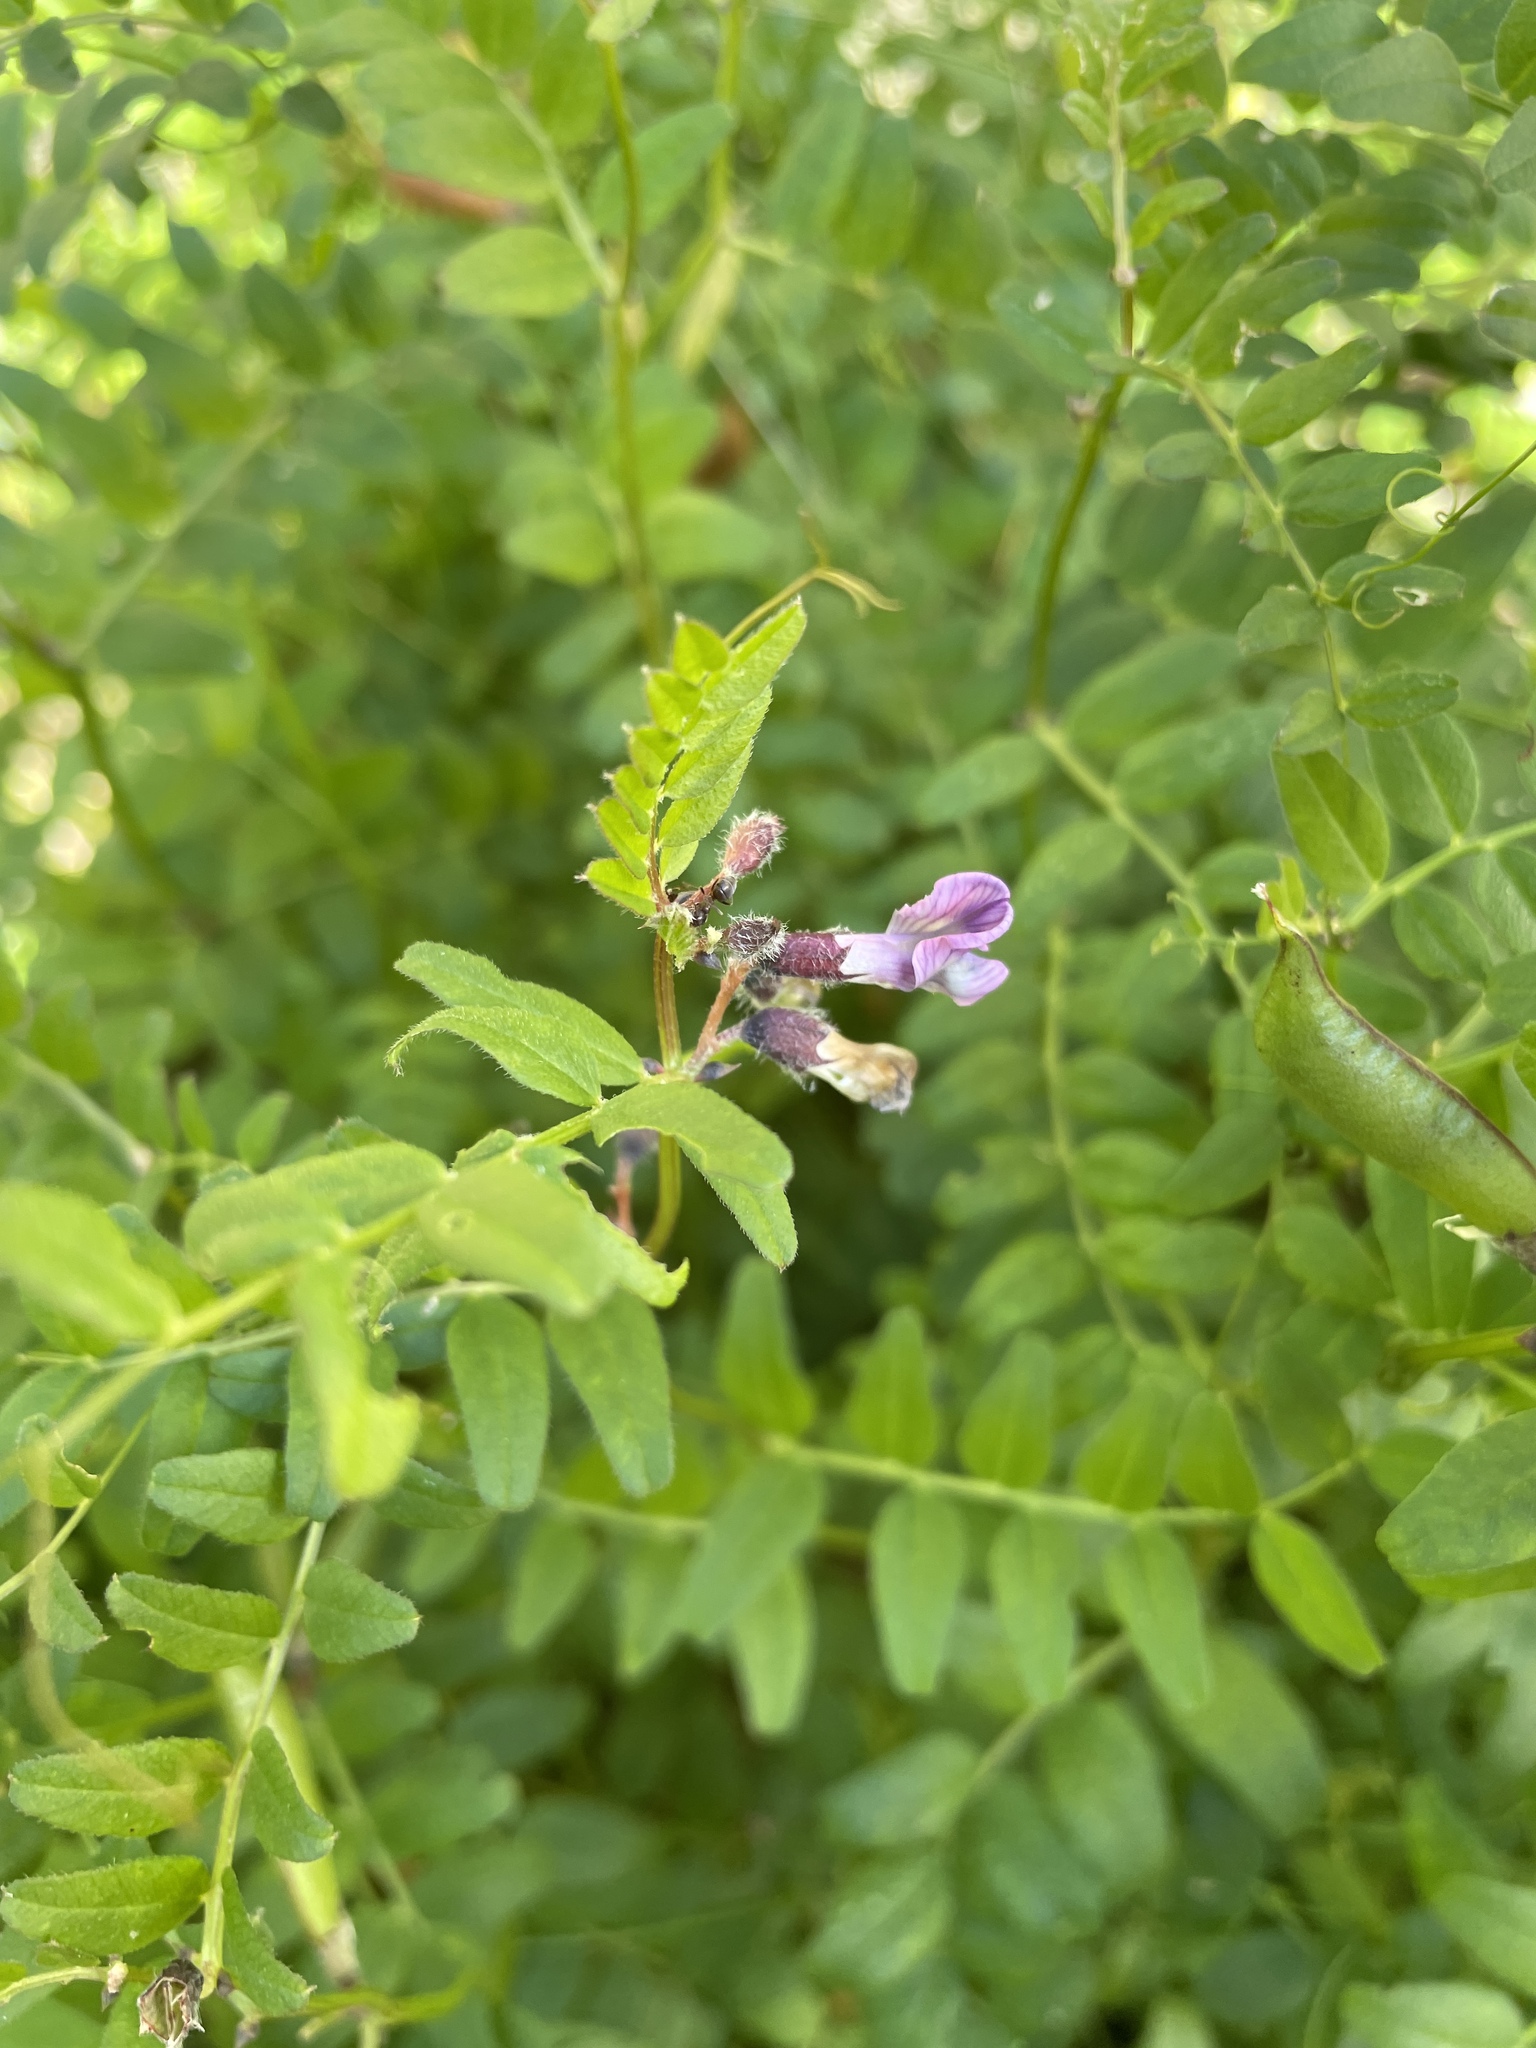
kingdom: Plantae
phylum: Tracheophyta
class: Magnoliopsida
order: Fabales
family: Fabaceae
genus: Vicia
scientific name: Vicia sepium
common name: Bush vetch
